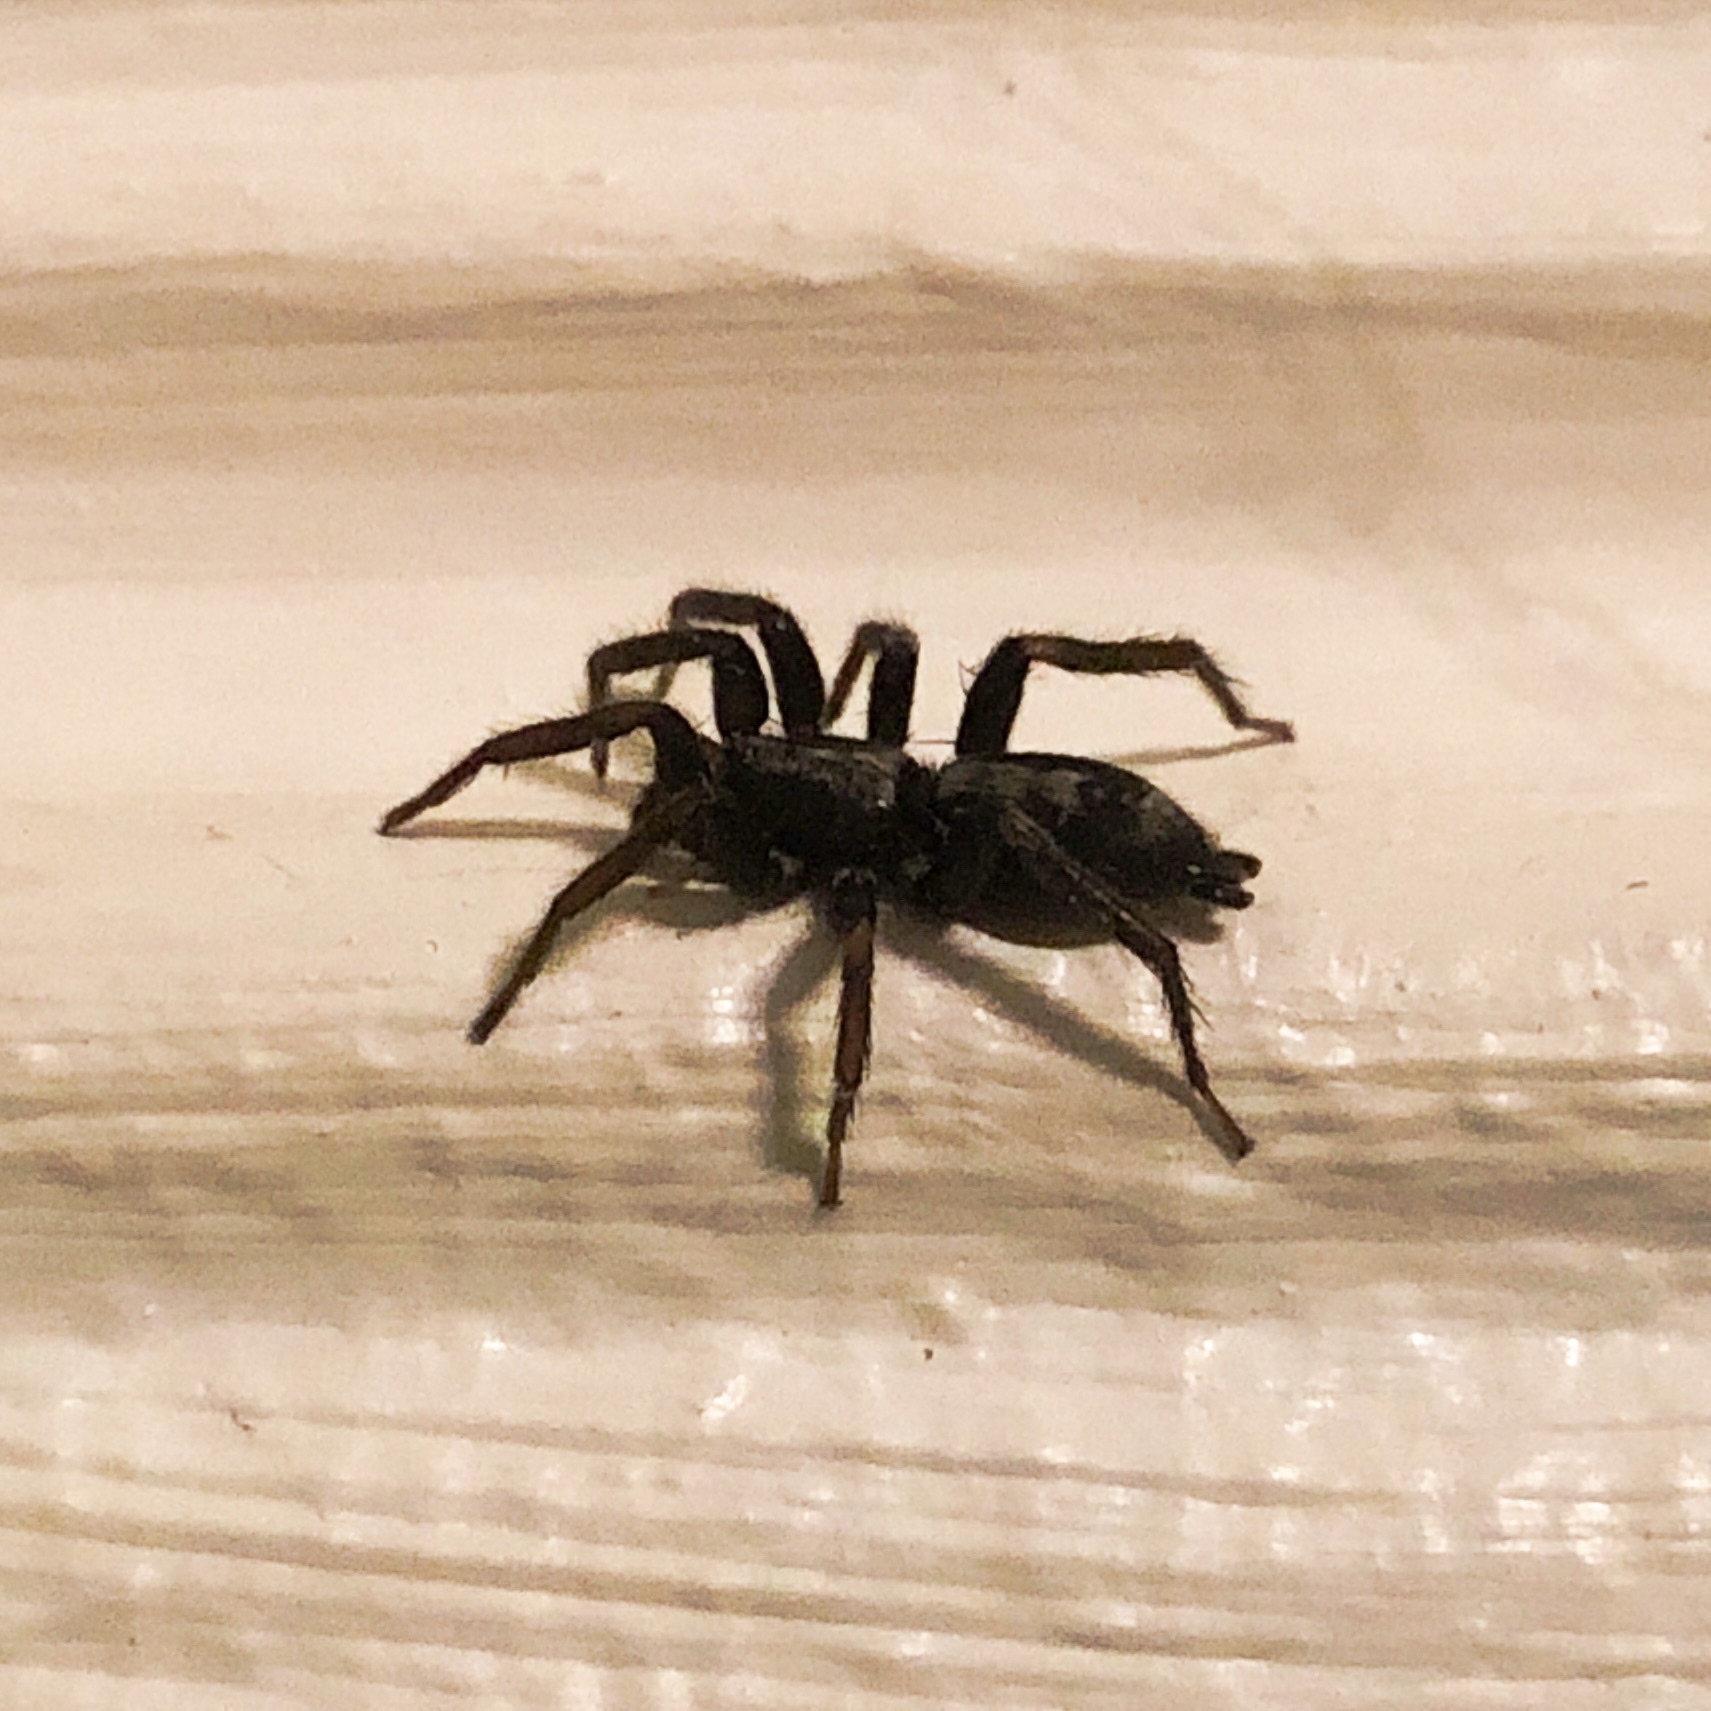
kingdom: Animalia
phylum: Arthropoda
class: Arachnida
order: Araneae
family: Gnaphosidae
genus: Herpyllus
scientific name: Herpyllus ecclesiasticus
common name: Eastern parson spider
